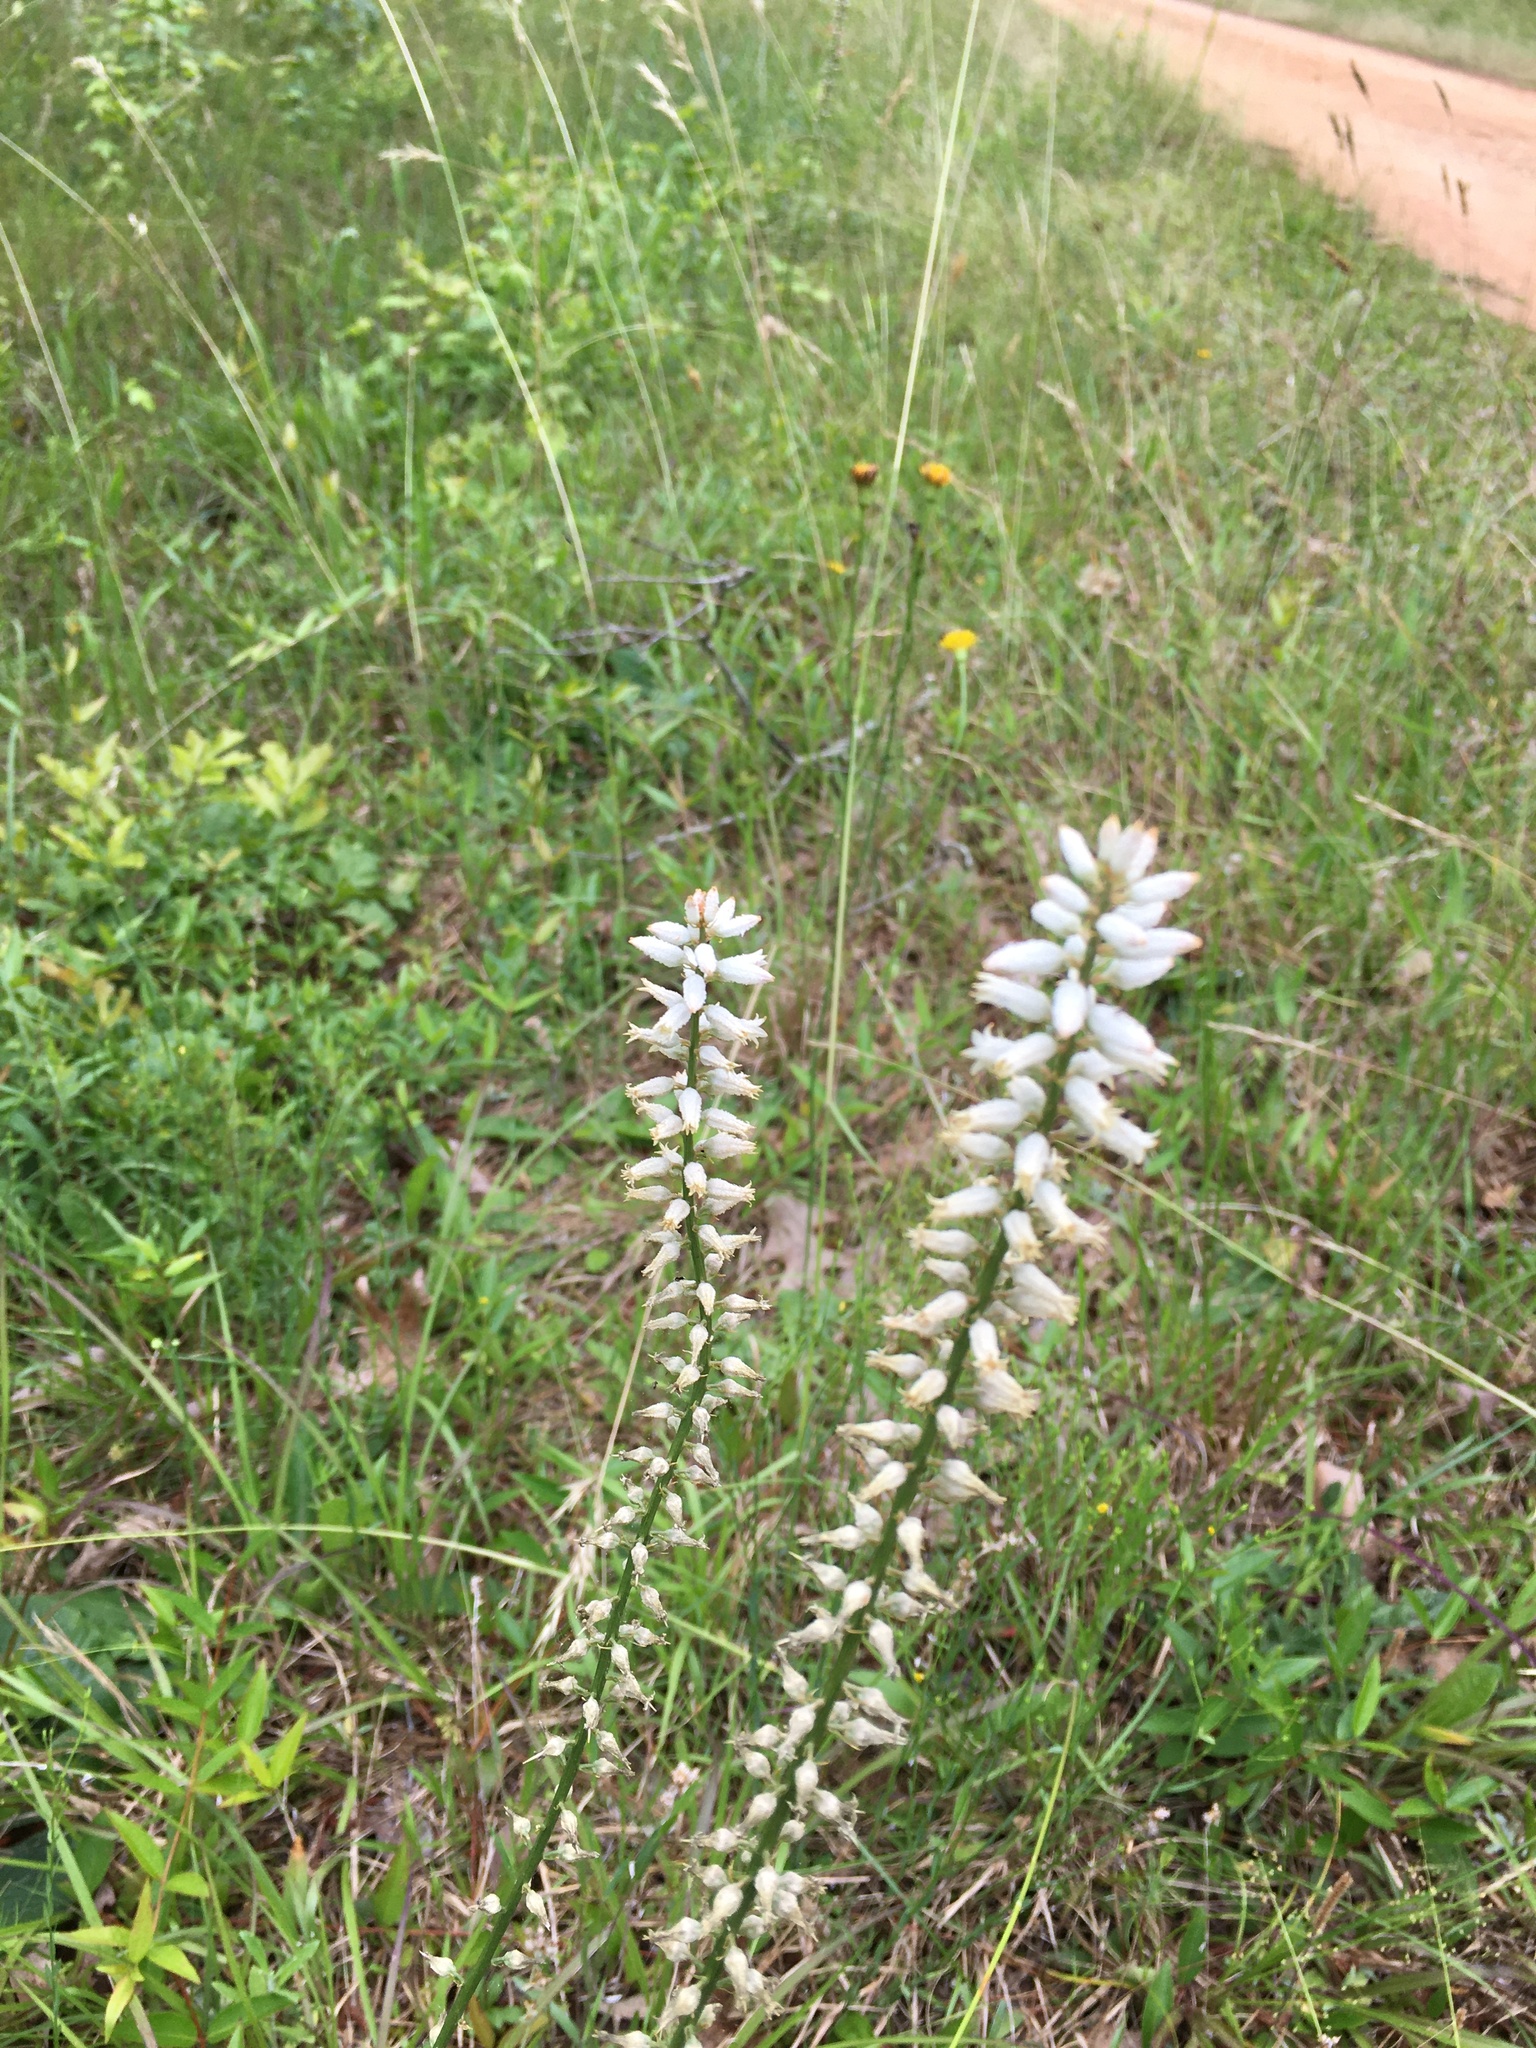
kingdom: Plantae
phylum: Tracheophyta
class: Liliopsida
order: Dioscoreales
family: Nartheciaceae
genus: Aletris
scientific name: Aletris farinosa
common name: Colicroot
